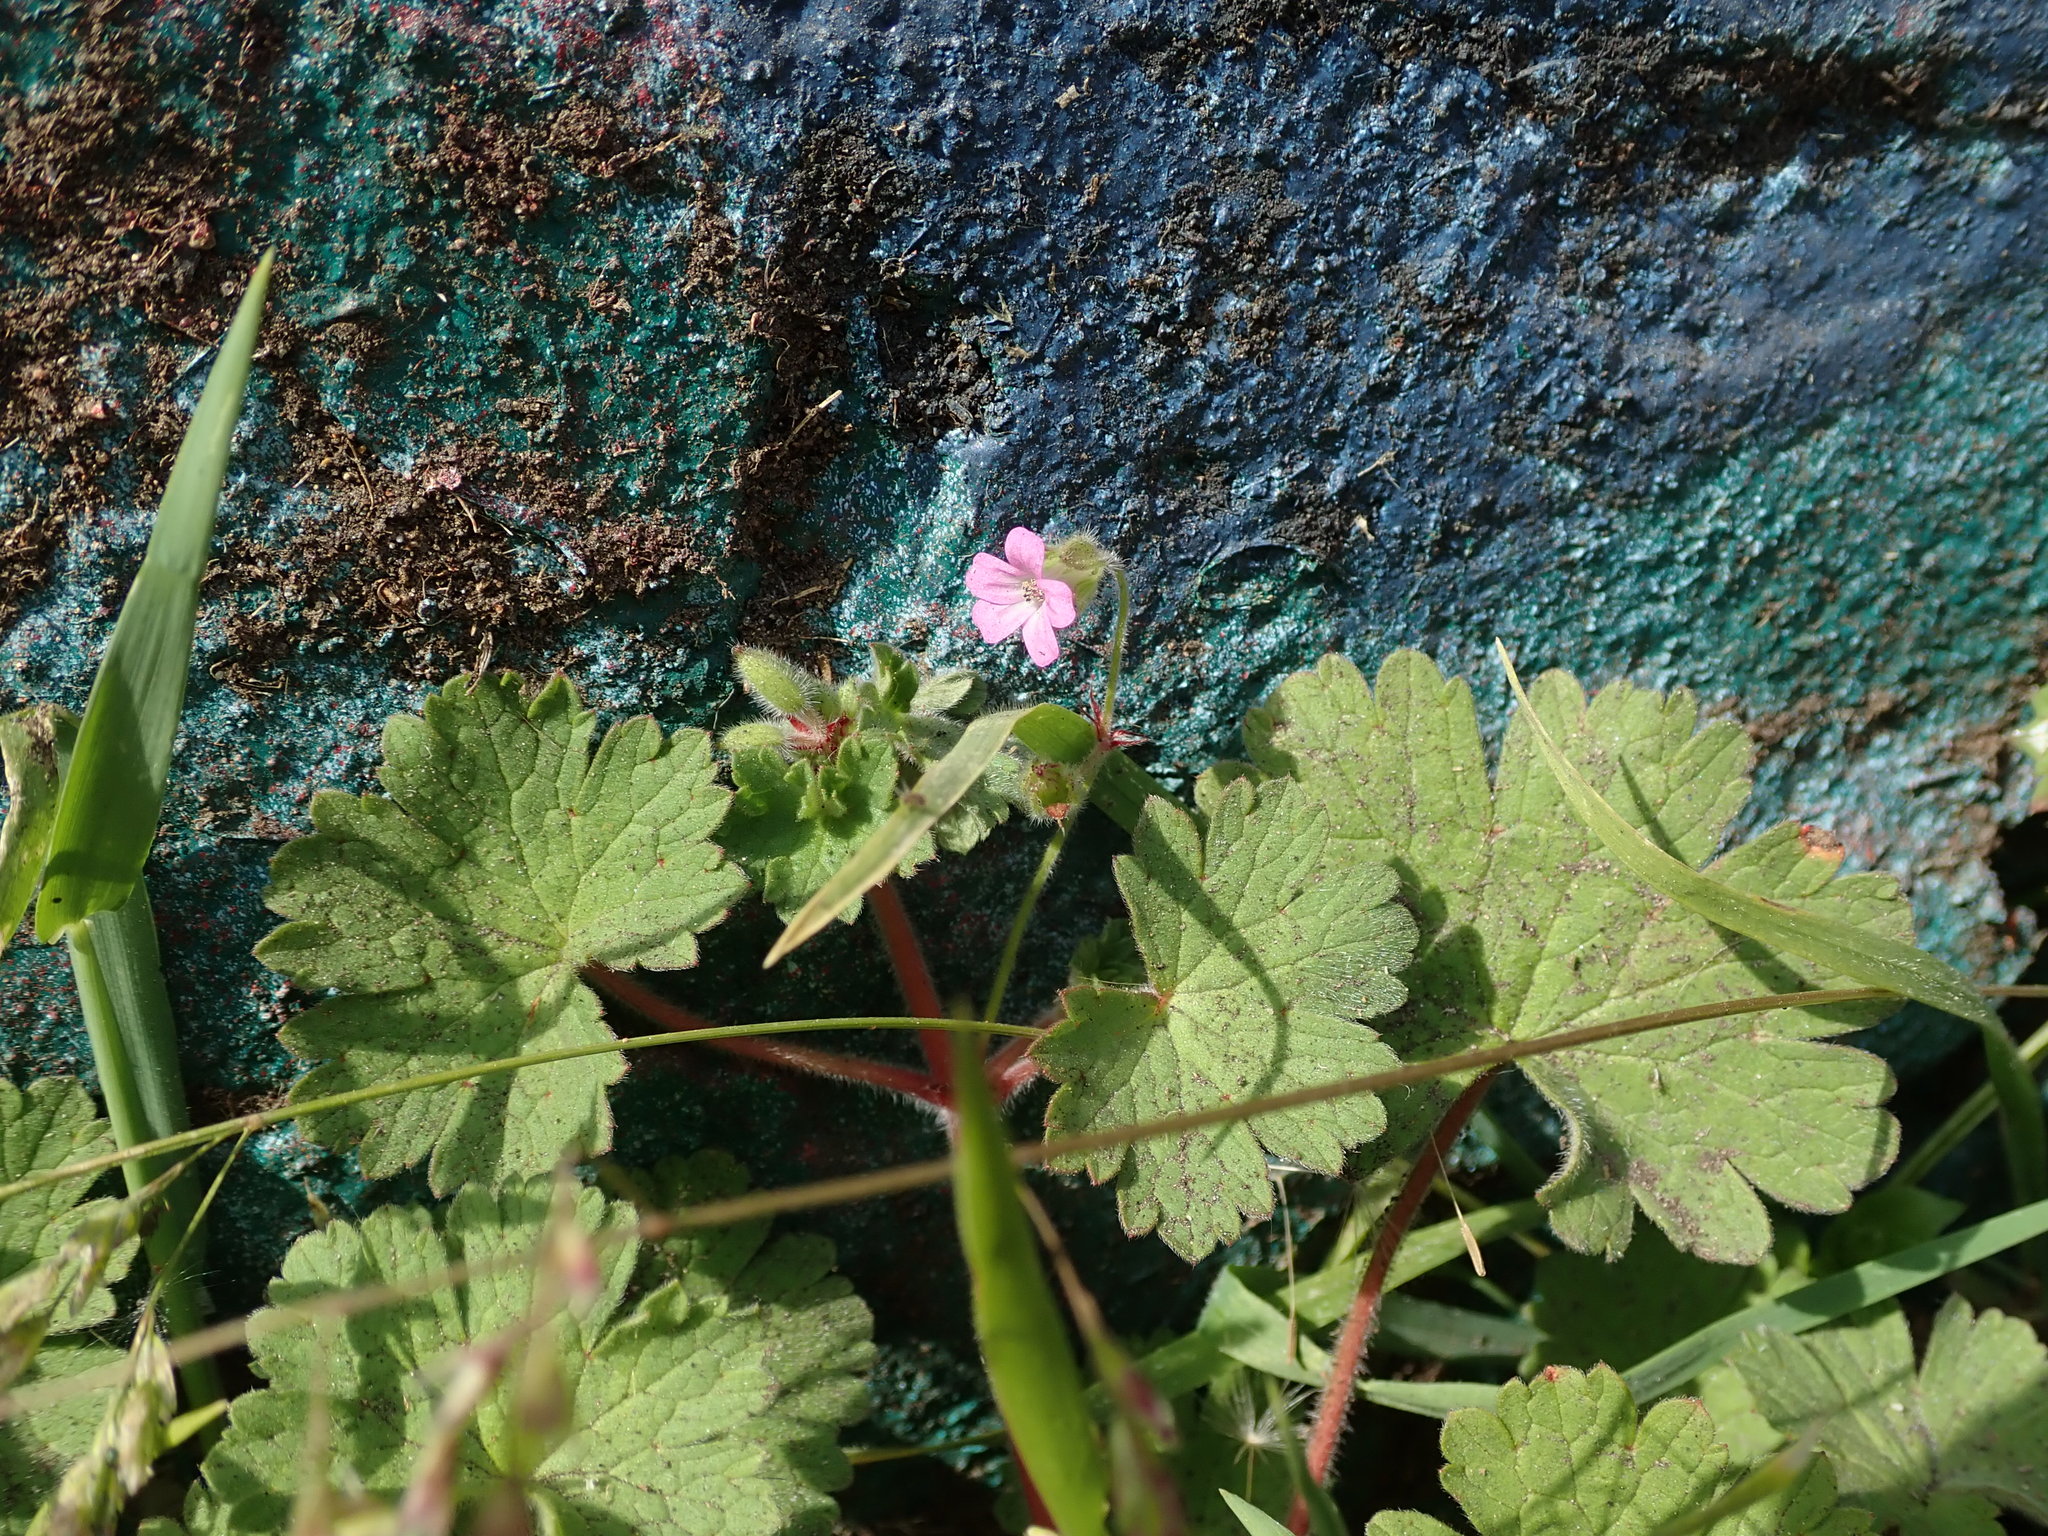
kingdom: Plantae
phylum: Tracheophyta
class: Magnoliopsida
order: Geraniales
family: Geraniaceae
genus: Geranium
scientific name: Geranium rotundifolium
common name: Round-leaved crane's-bill
